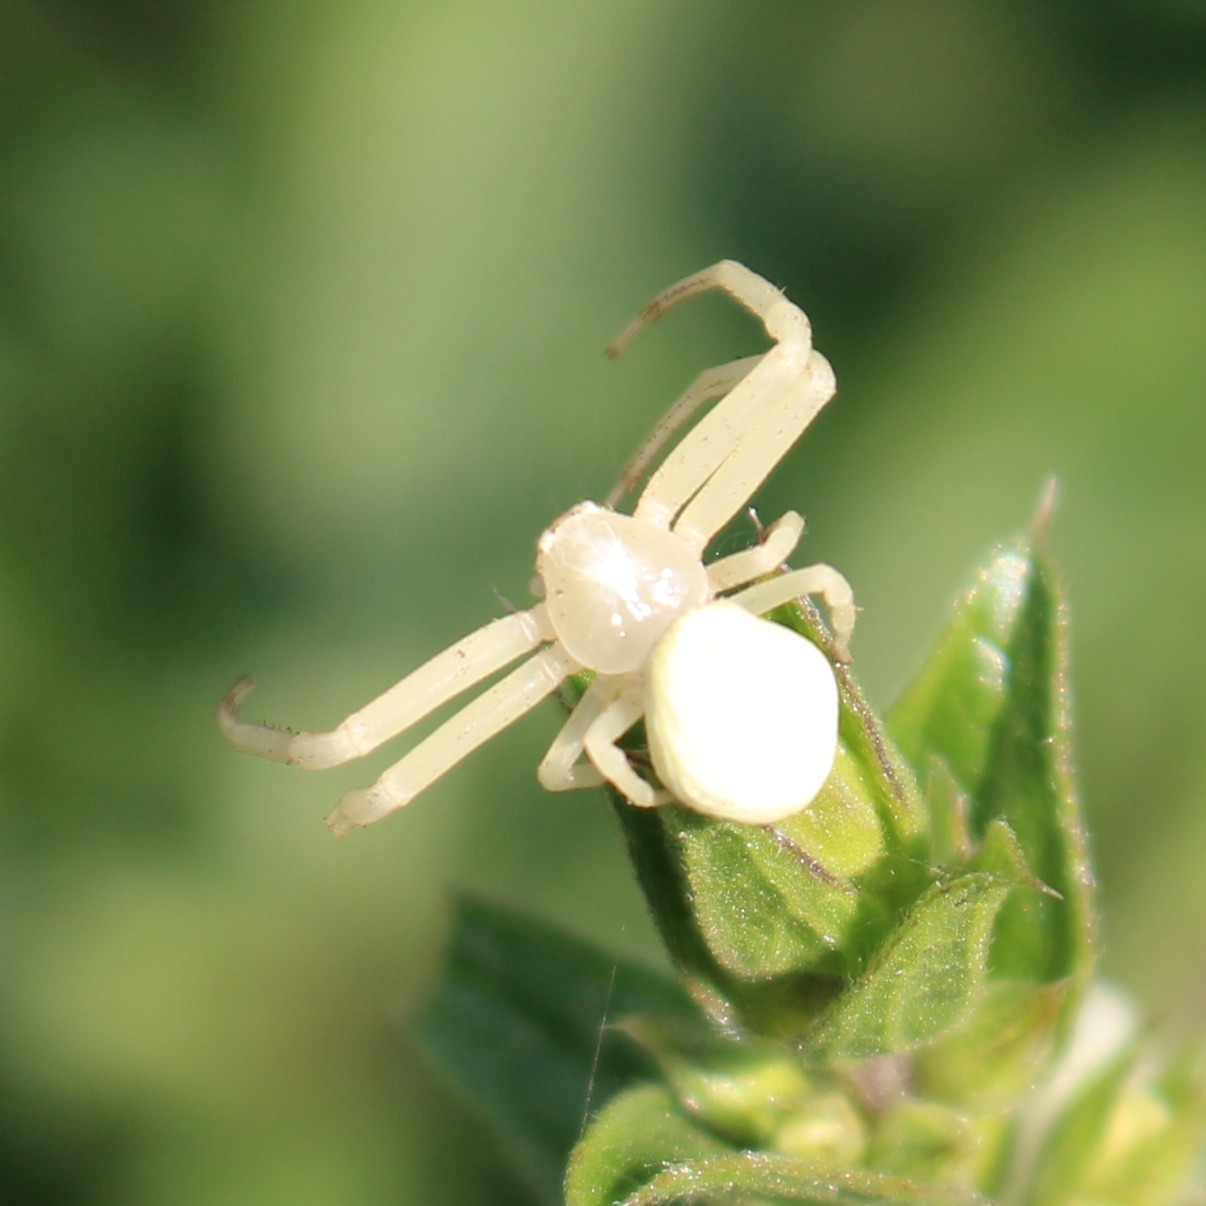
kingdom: Animalia
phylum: Arthropoda
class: Arachnida
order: Araneae
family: Thomisidae
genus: Misumena
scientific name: Misumena vatia
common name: Goldenrod crab spider
